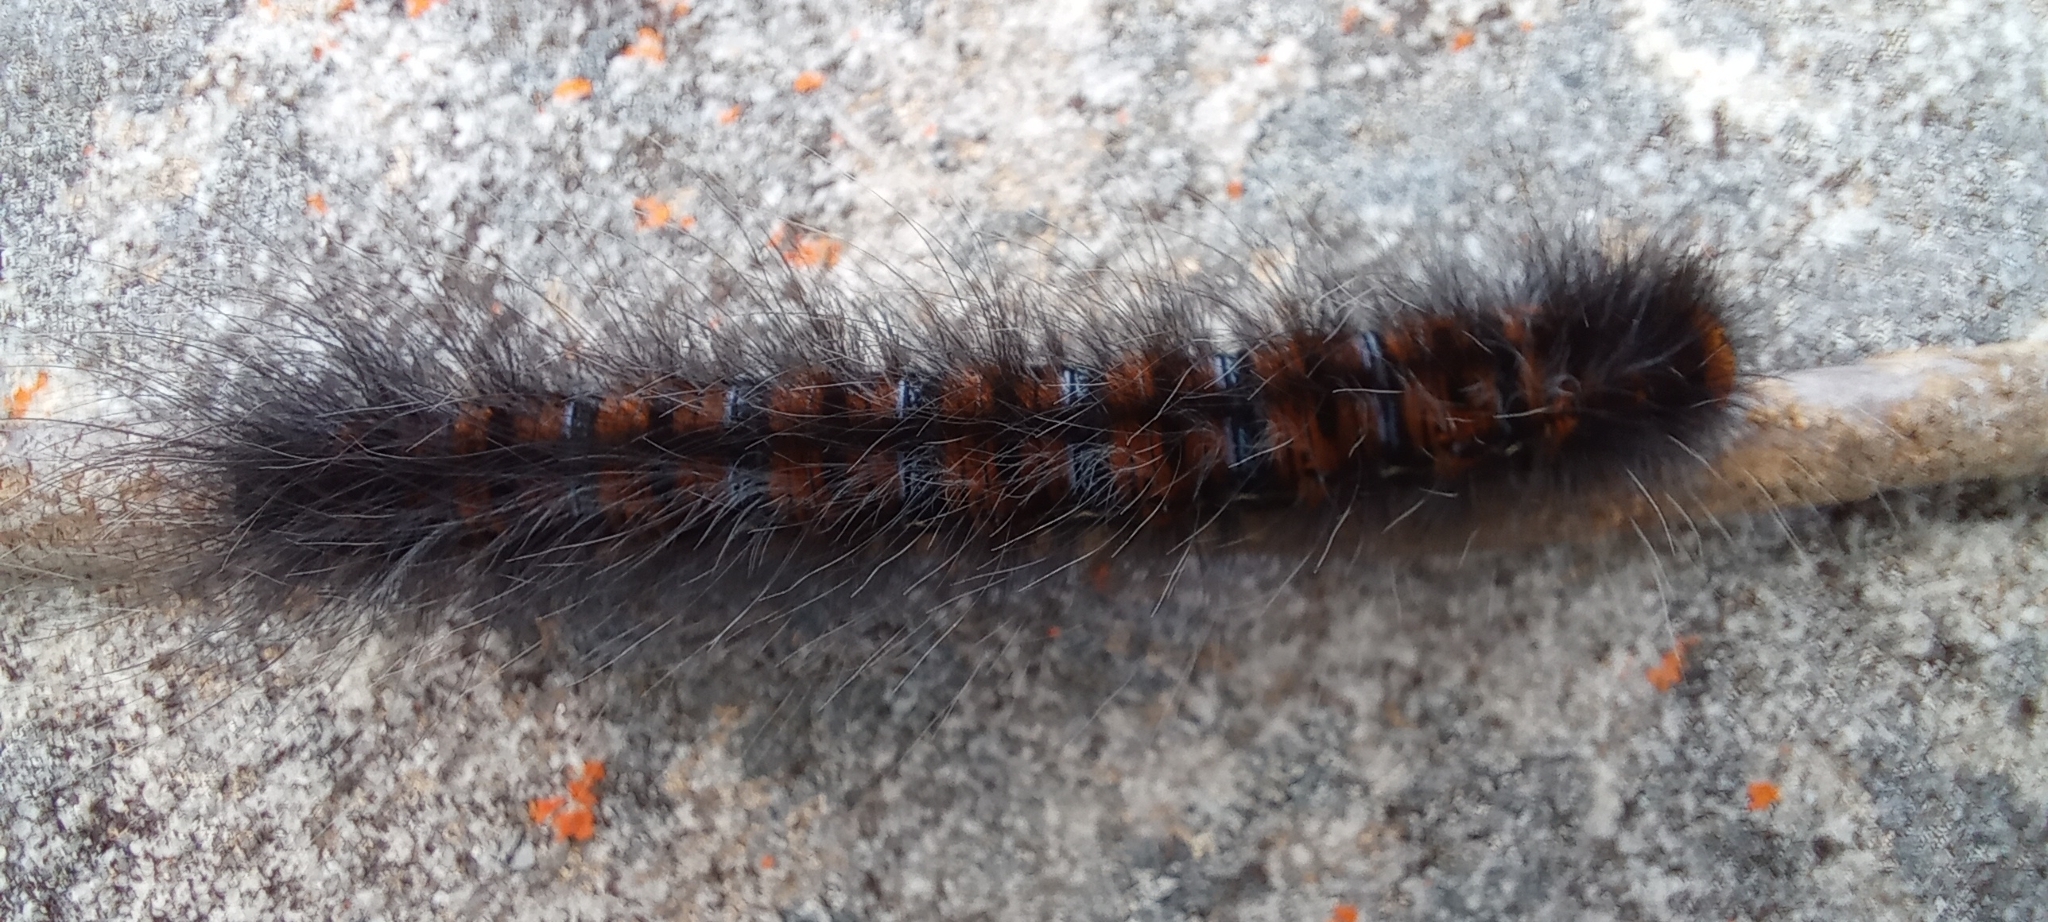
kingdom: Animalia
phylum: Arthropoda
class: Insecta
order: Lepidoptera
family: Lasiocampidae
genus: Mesocelis
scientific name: Mesocelis monticola
